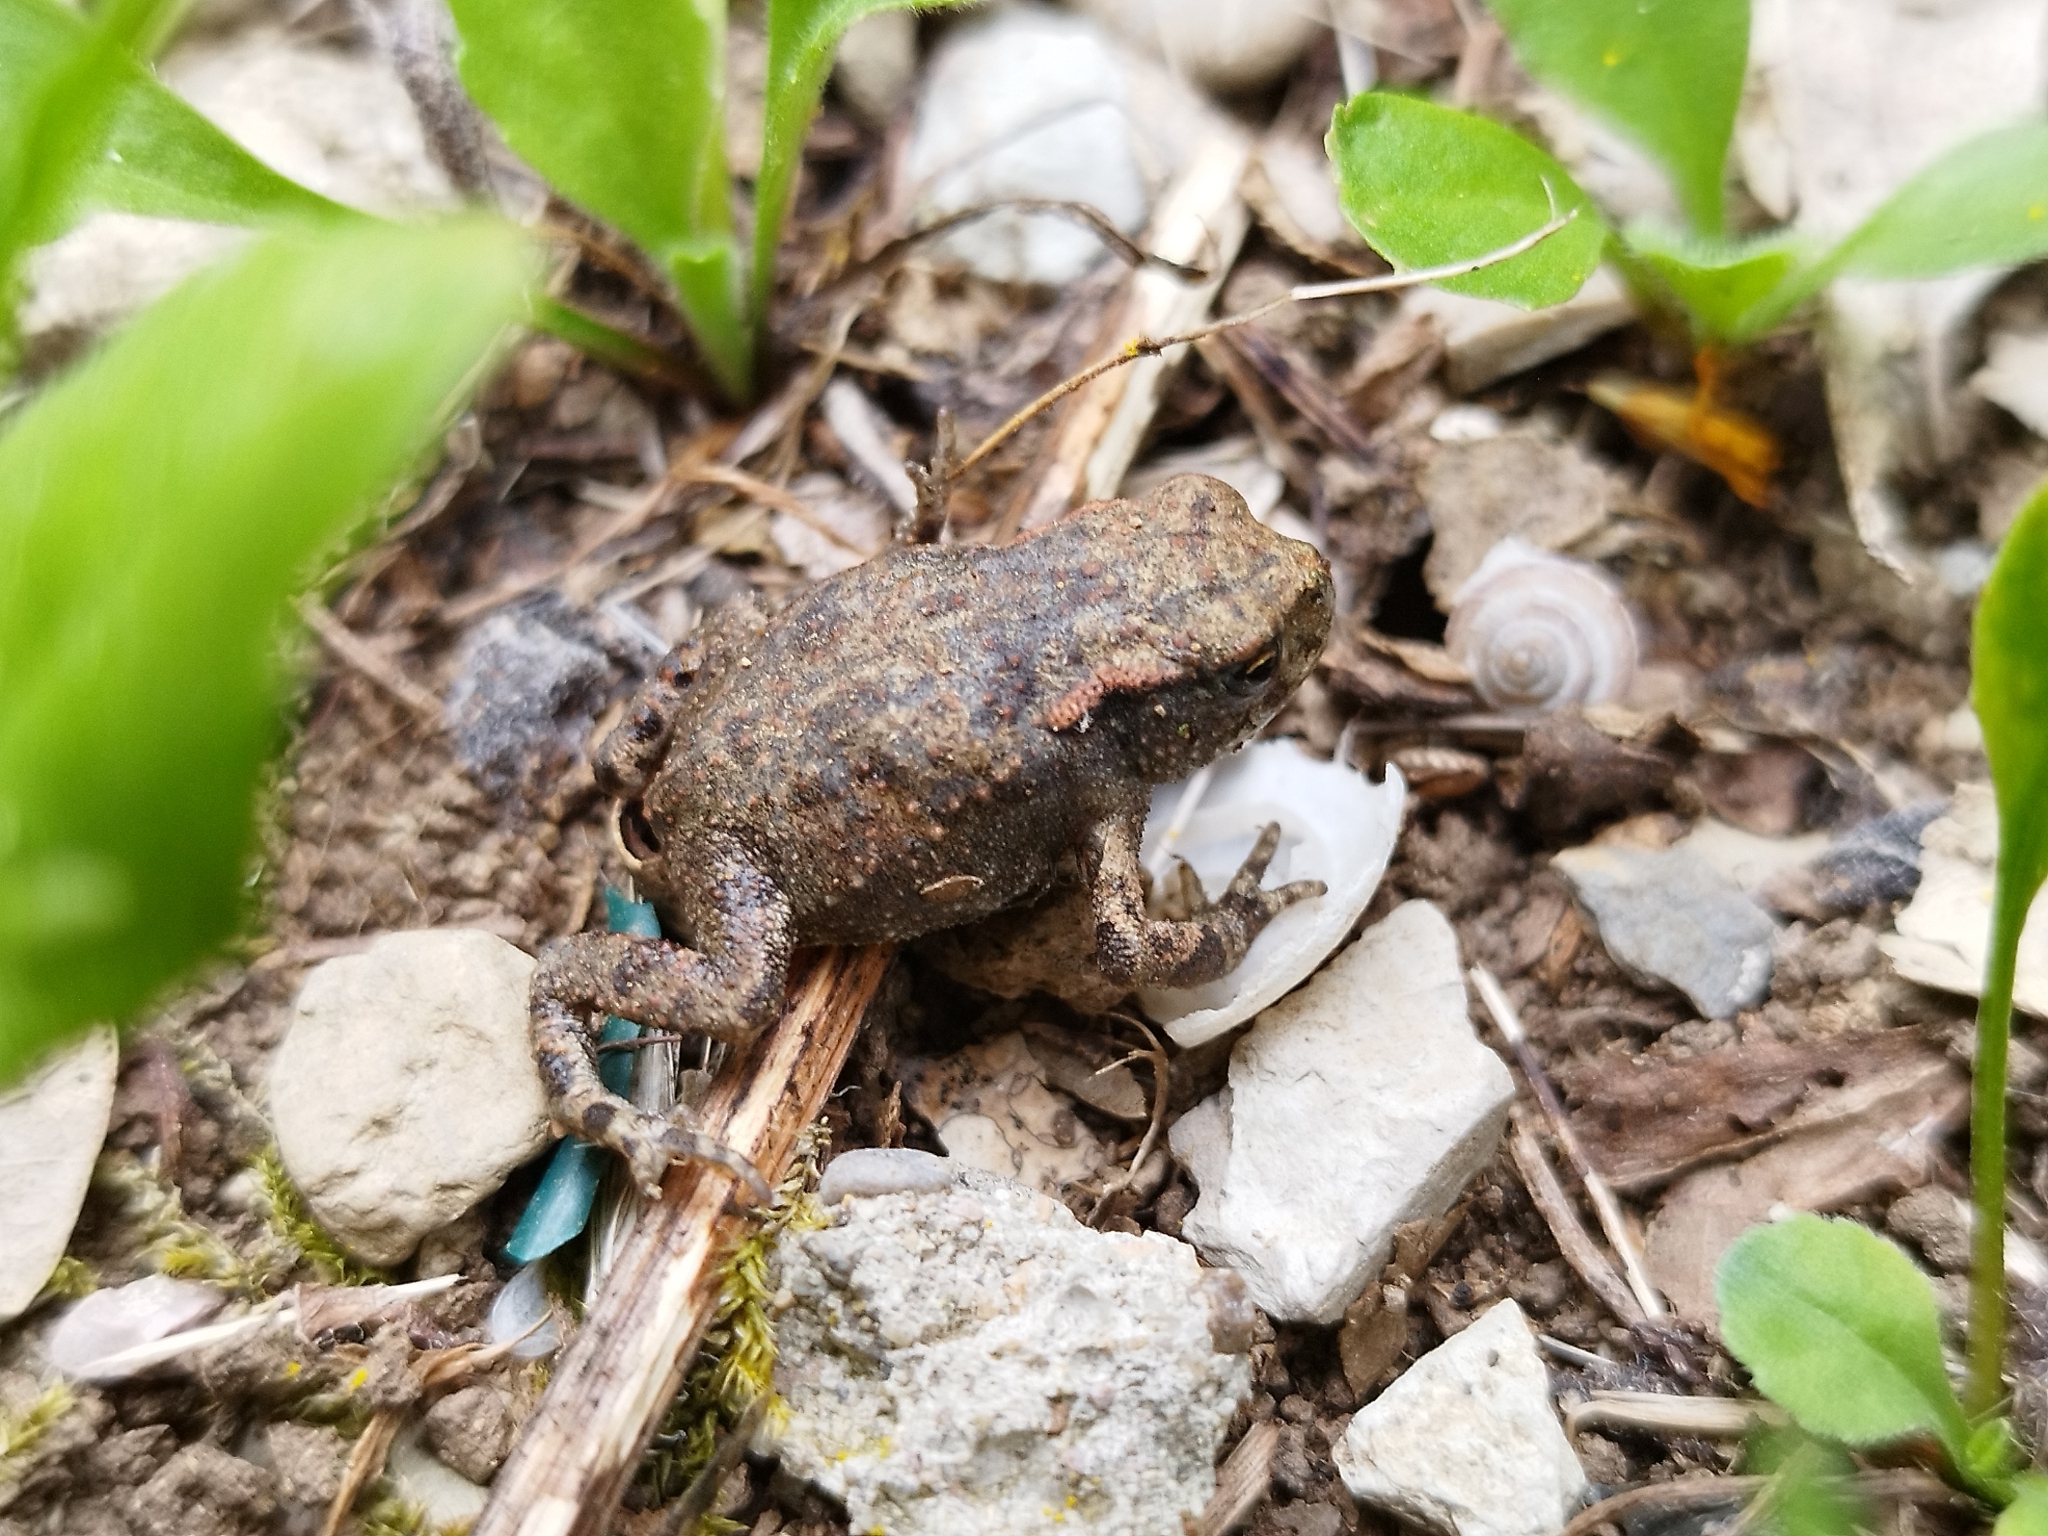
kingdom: Animalia
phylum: Chordata
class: Amphibia
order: Anura
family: Bufonidae
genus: Bufo
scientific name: Bufo bufo
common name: Common toad
